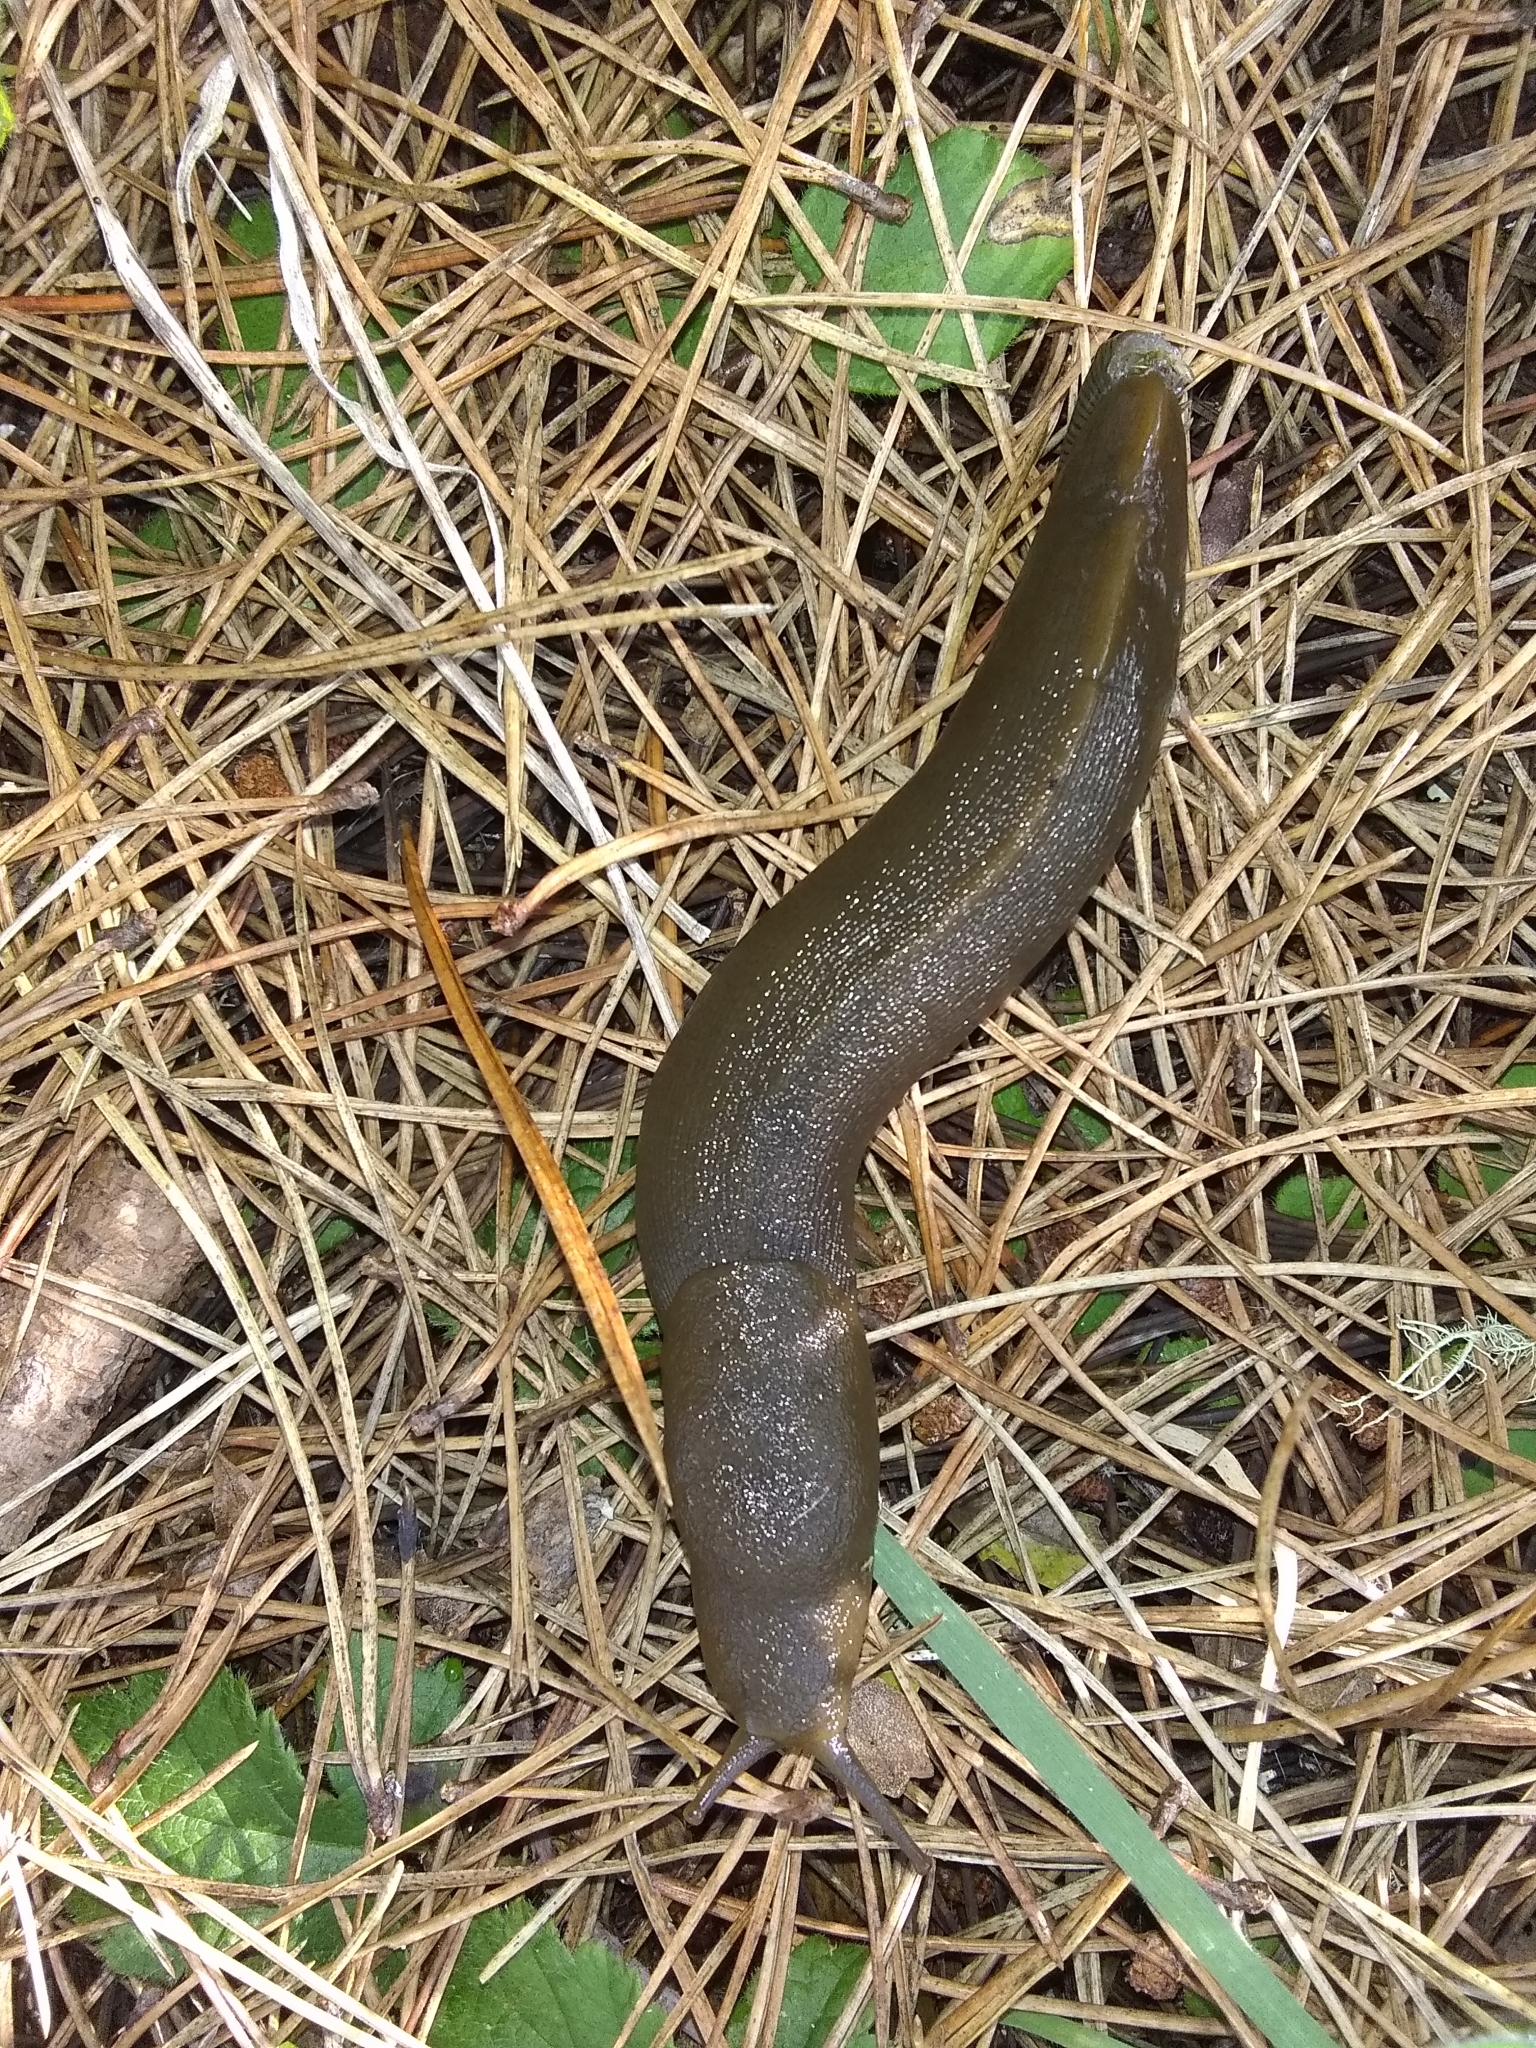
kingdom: Animalia
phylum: Mollusca
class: Gastropoda
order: Stylommatophora
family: Ariolimacidae
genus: Ariolimax
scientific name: Ariolimax buttoni
